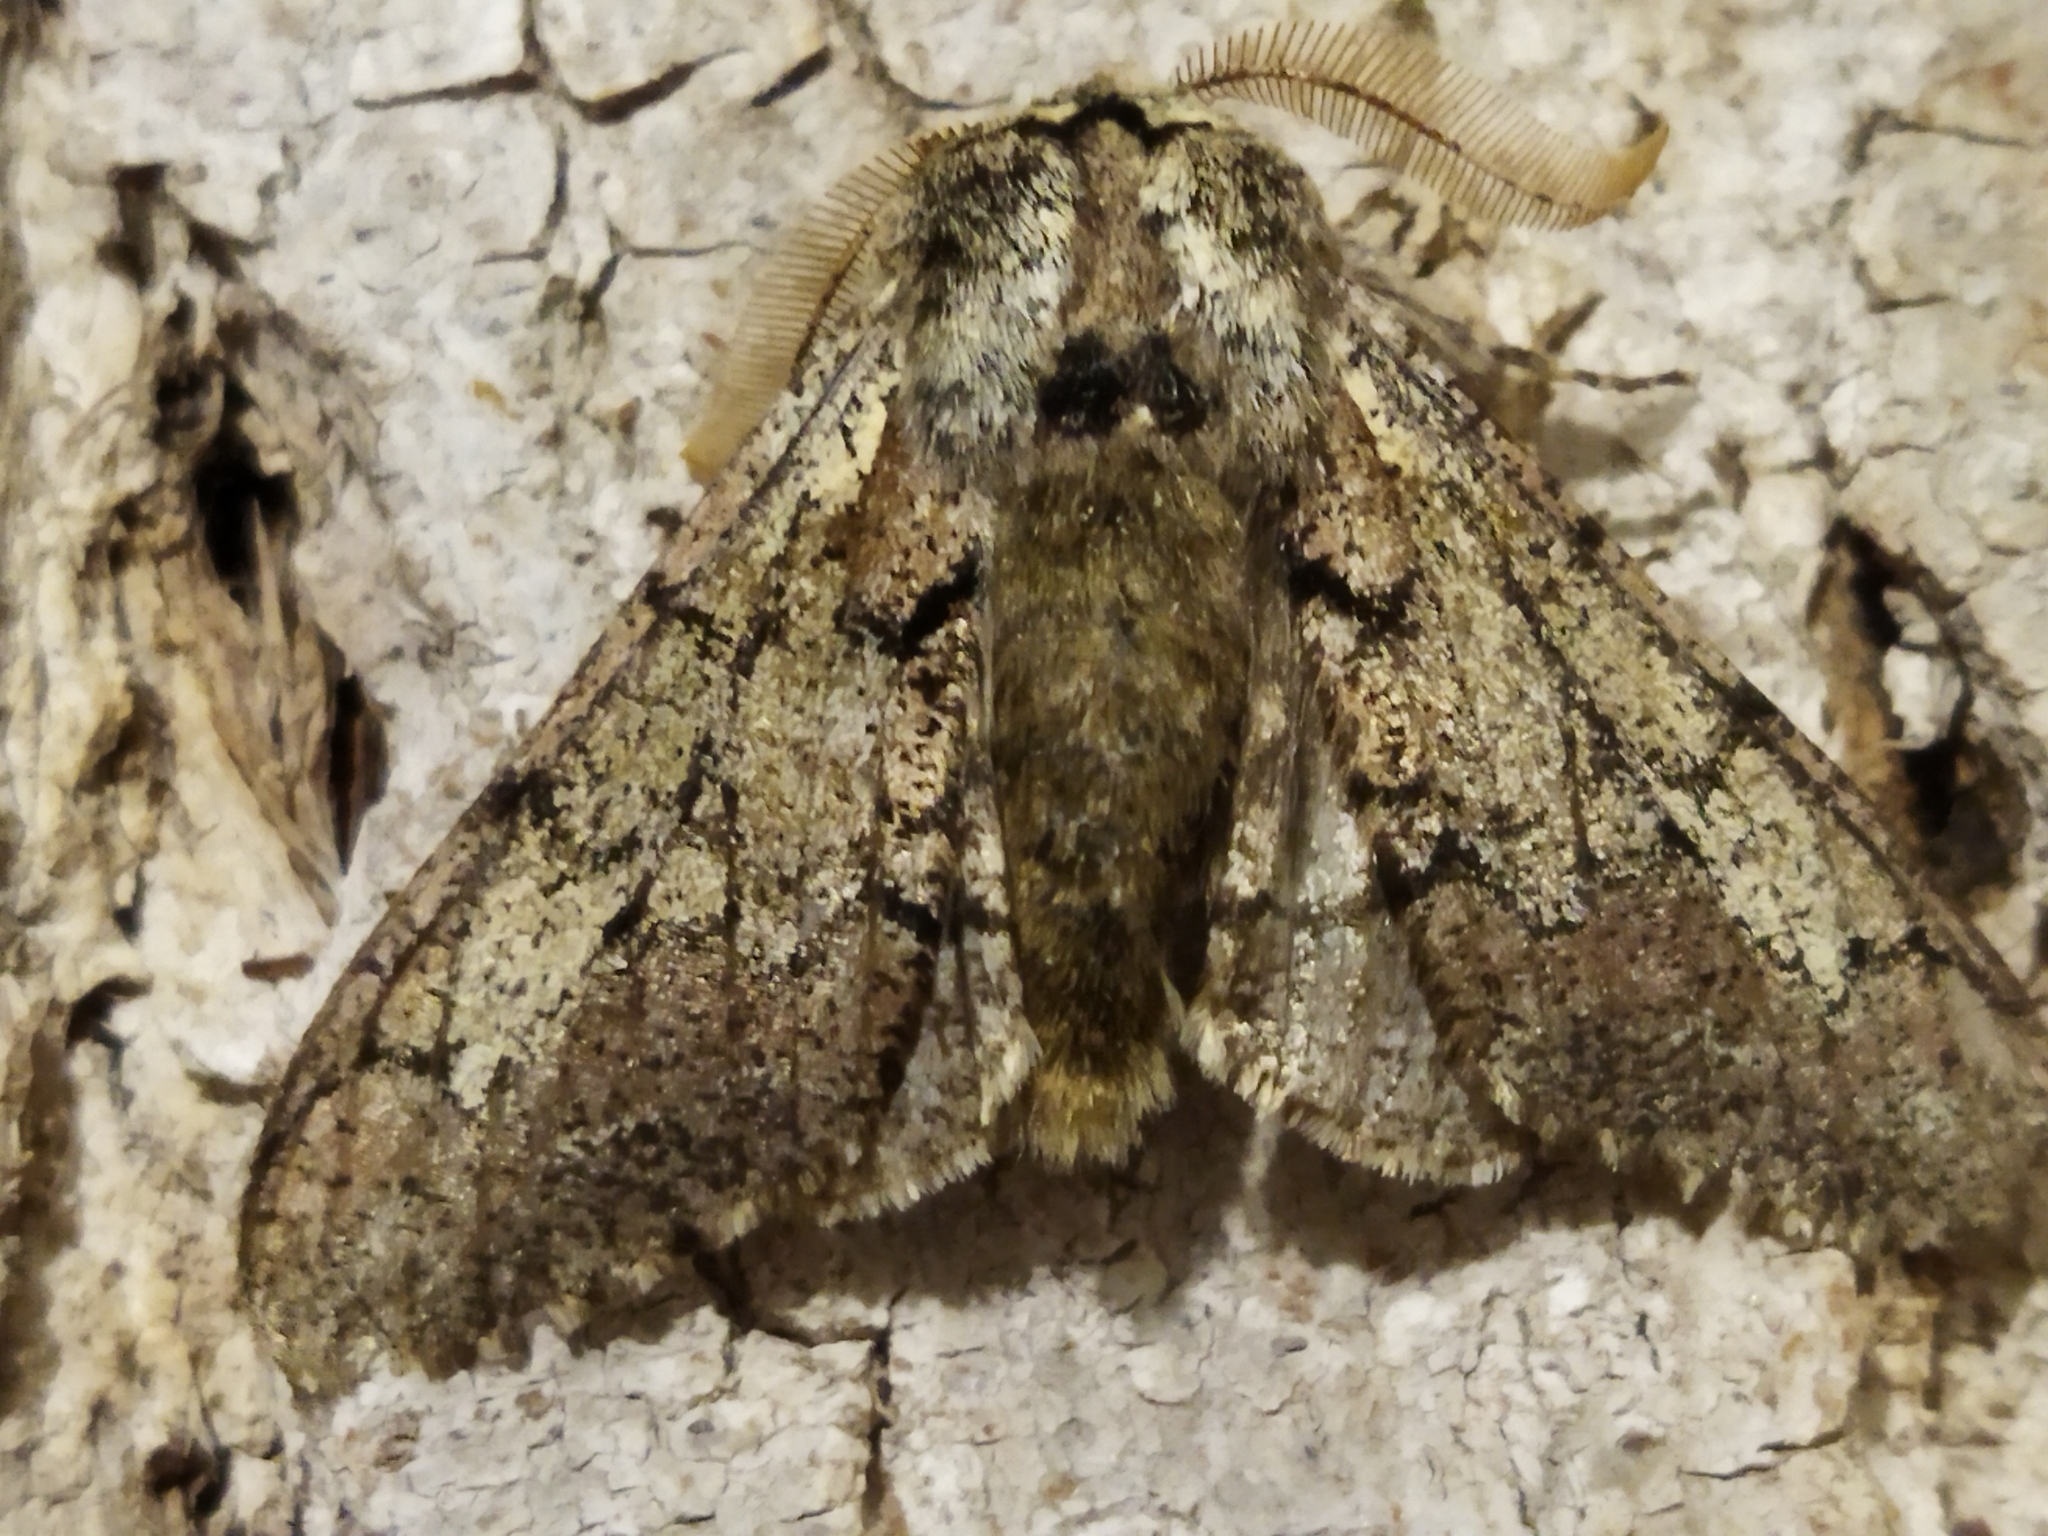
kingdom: Animalia
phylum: Arthropoda
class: Insecta
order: Lepidoptera
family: Geometridae
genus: Biston
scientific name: Biston strataria
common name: Oak beauty
